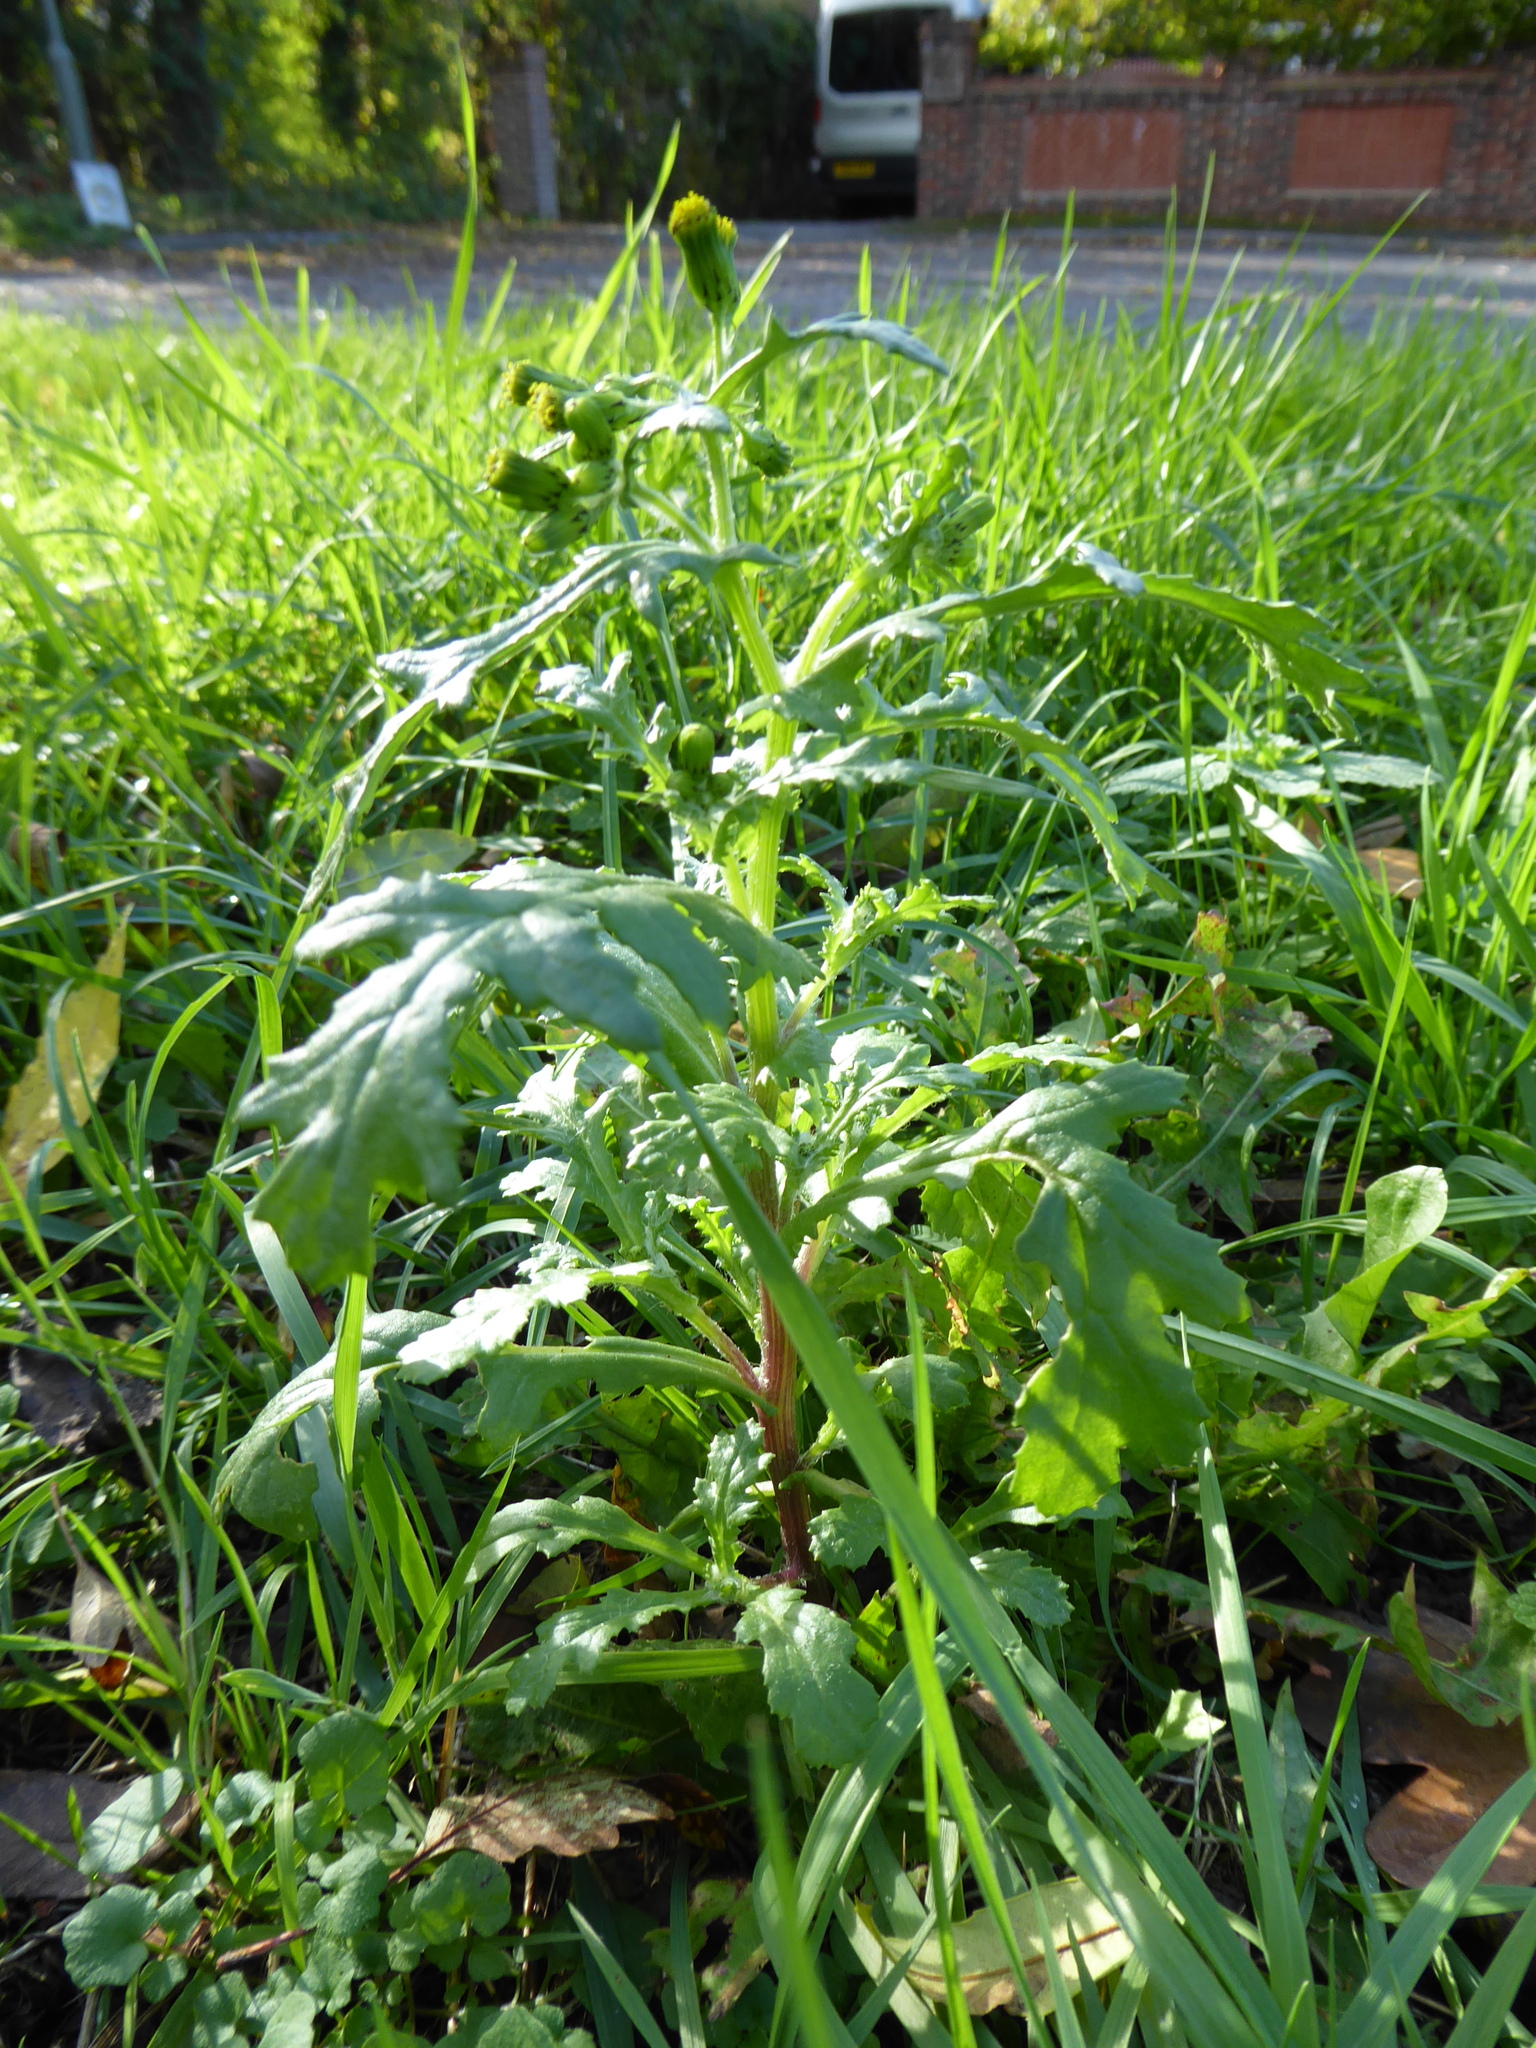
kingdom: Plantae
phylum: Tracheophyta
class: Magnoliopsida
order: Asterales
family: Asteraceae
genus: Senecio
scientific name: Senecio vulgaris
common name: Old-man-in-the-spring
